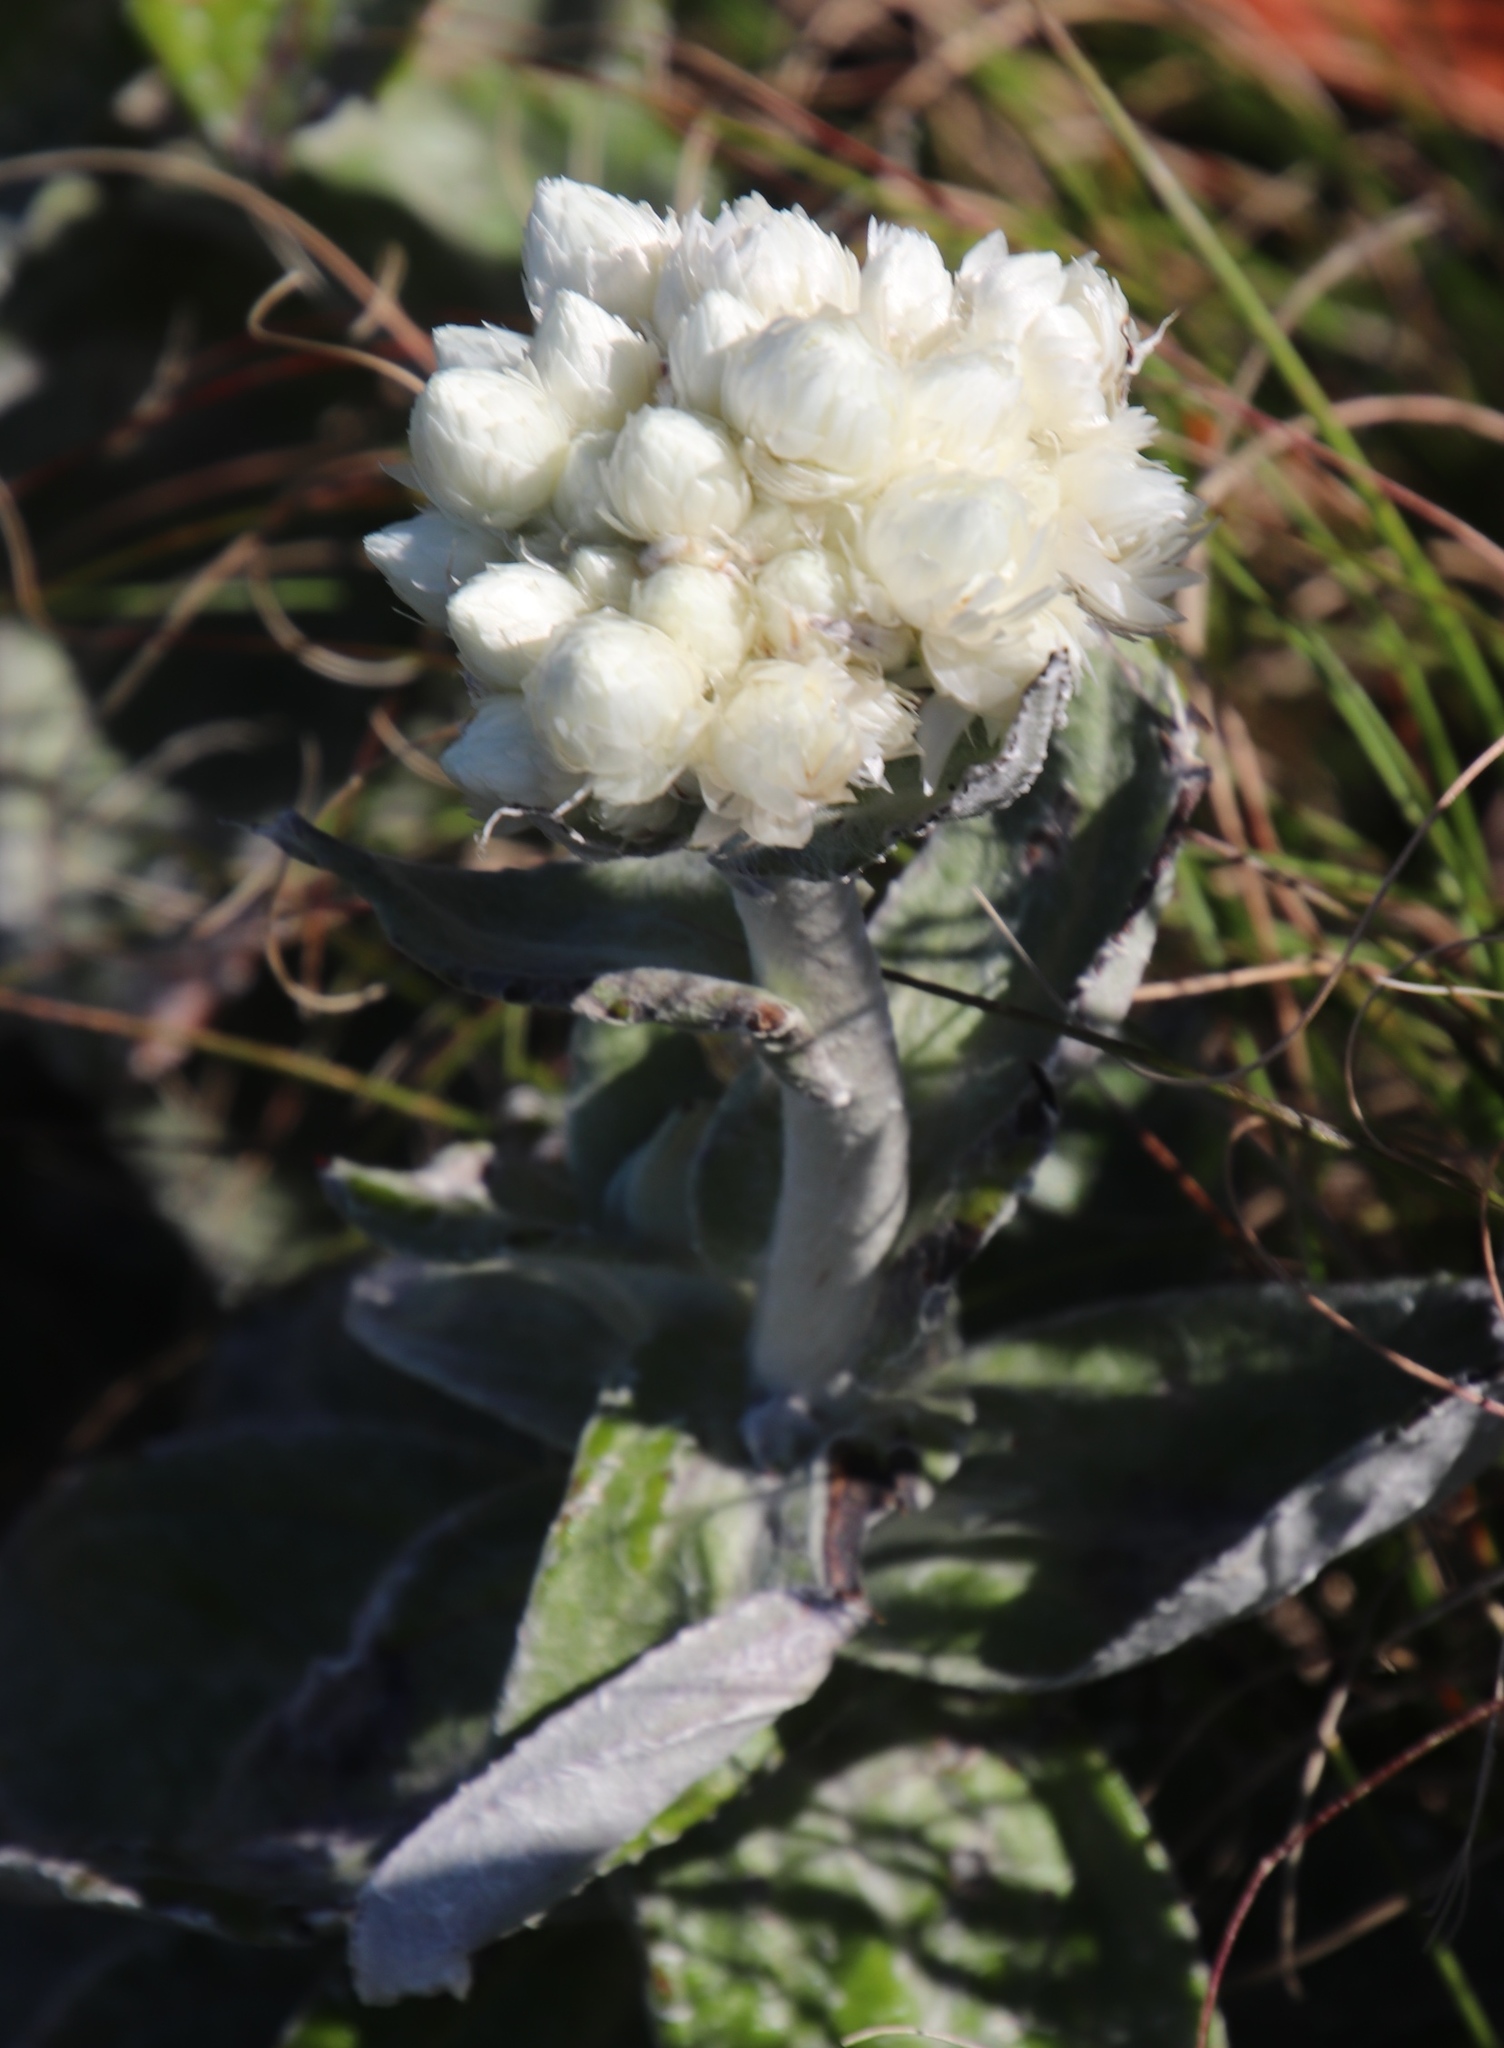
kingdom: Plantae
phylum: Tracheophyta
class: Magnoliopsida
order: Asterales
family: Asteraceae
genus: Helichrysum
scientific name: Helichrysum fruticans
